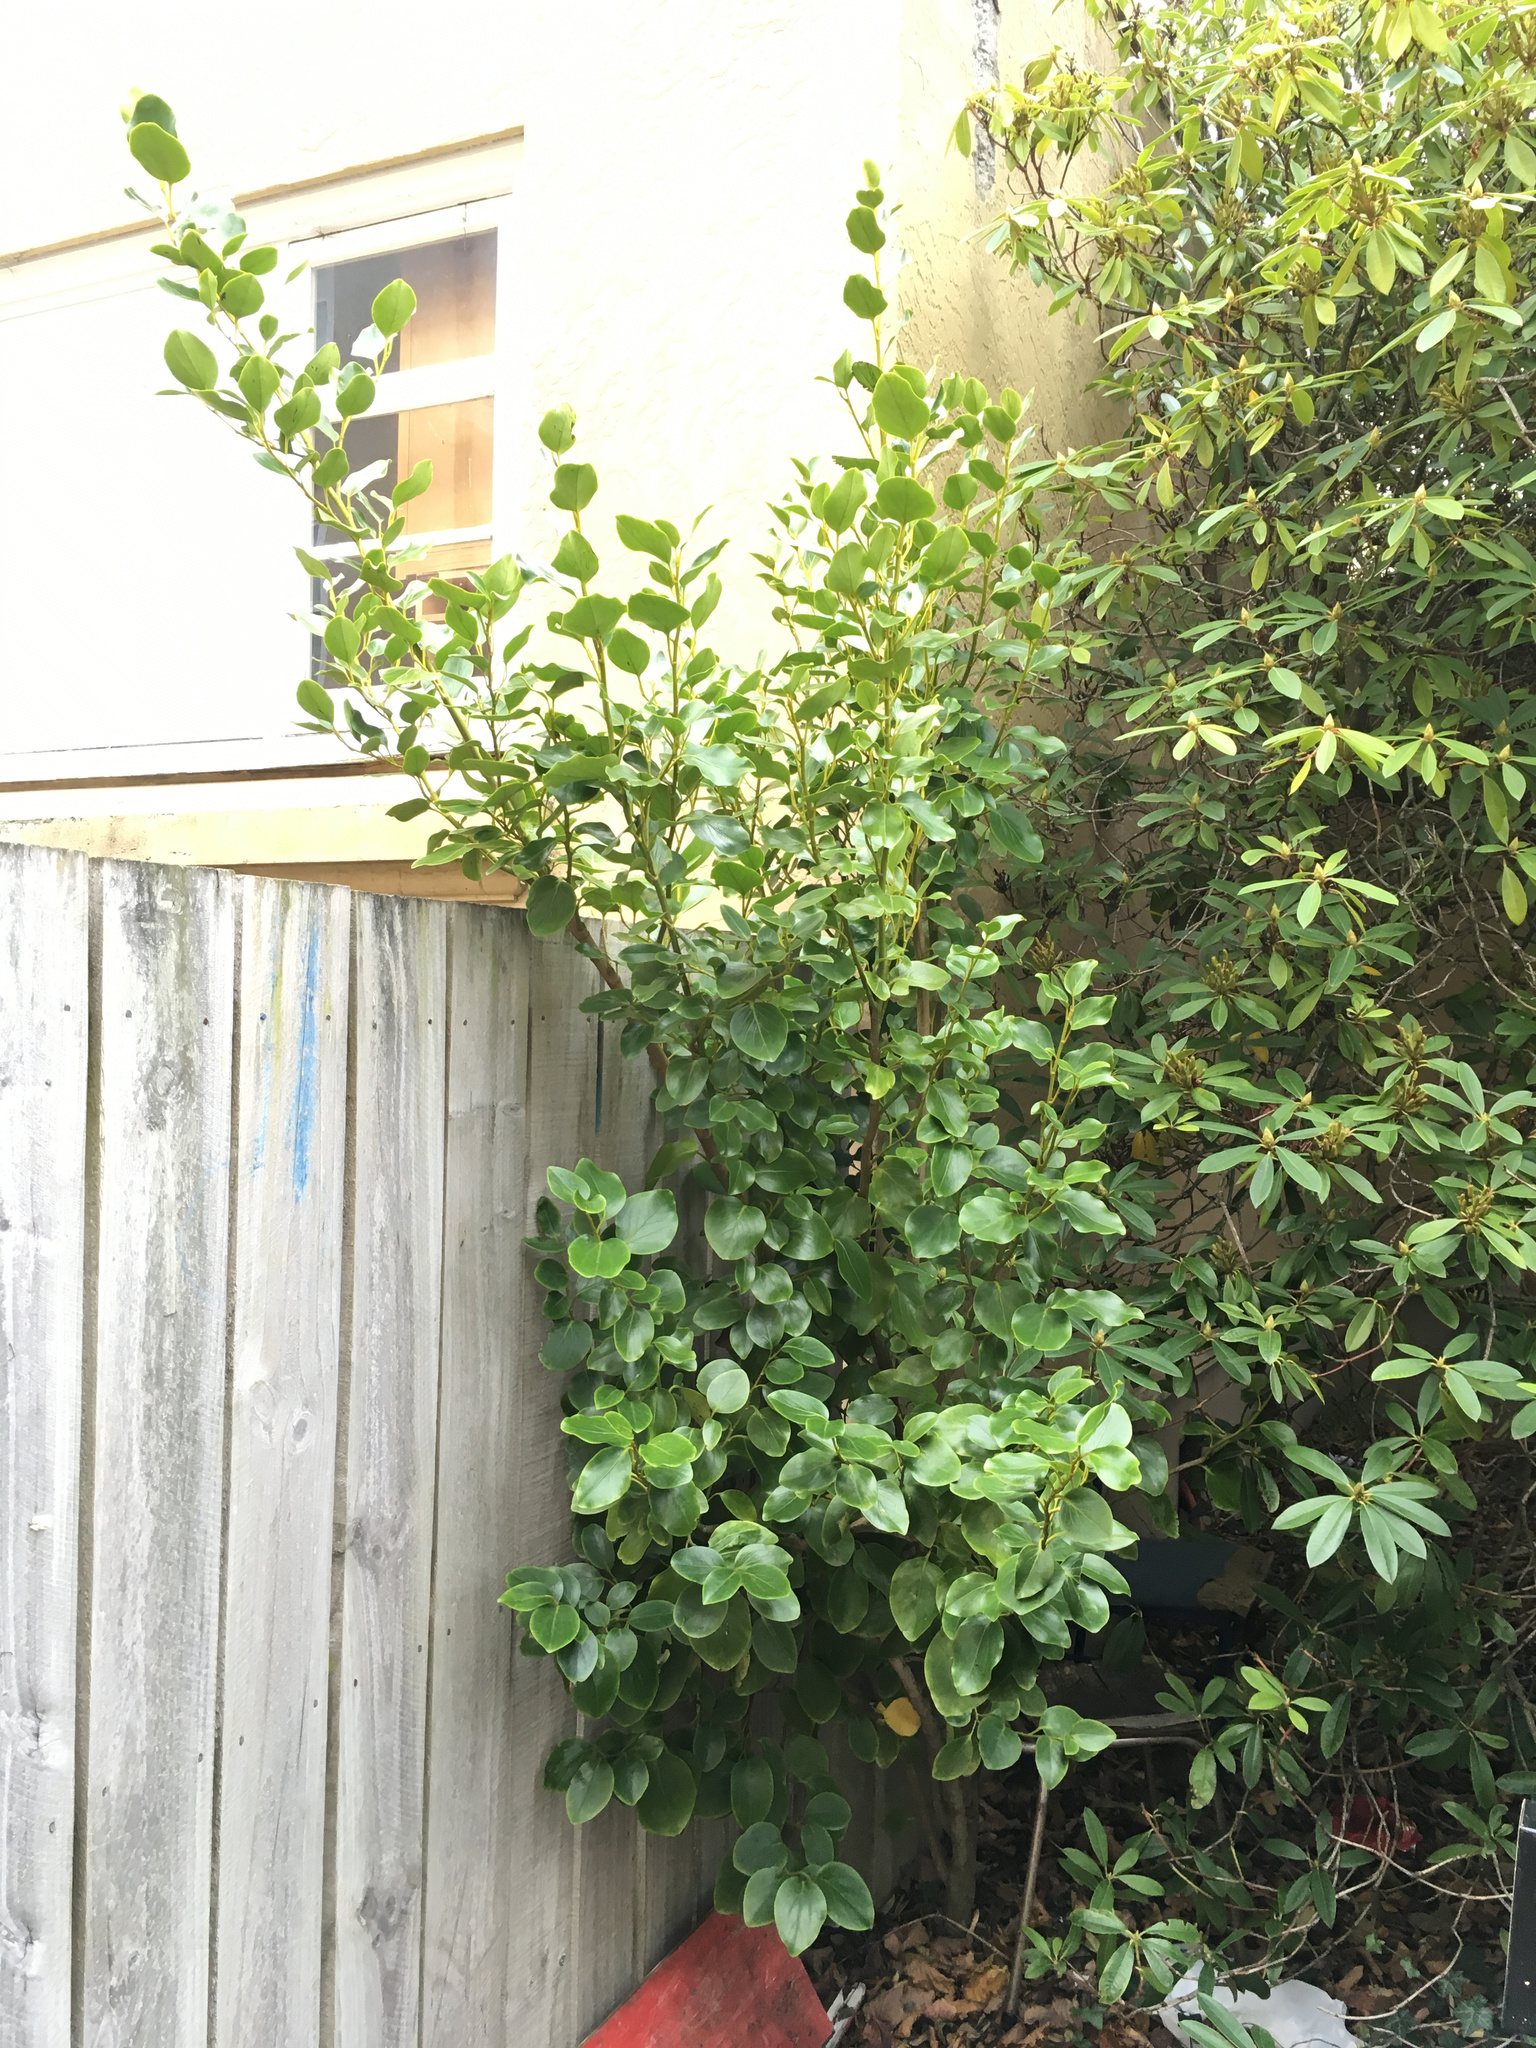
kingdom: Plantae
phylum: Tracheophyta
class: Magnoliopsida
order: Apiales
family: Griseliniaceae
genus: Griselinia
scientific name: Griselinia littoralis
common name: New zealand broadleaf
